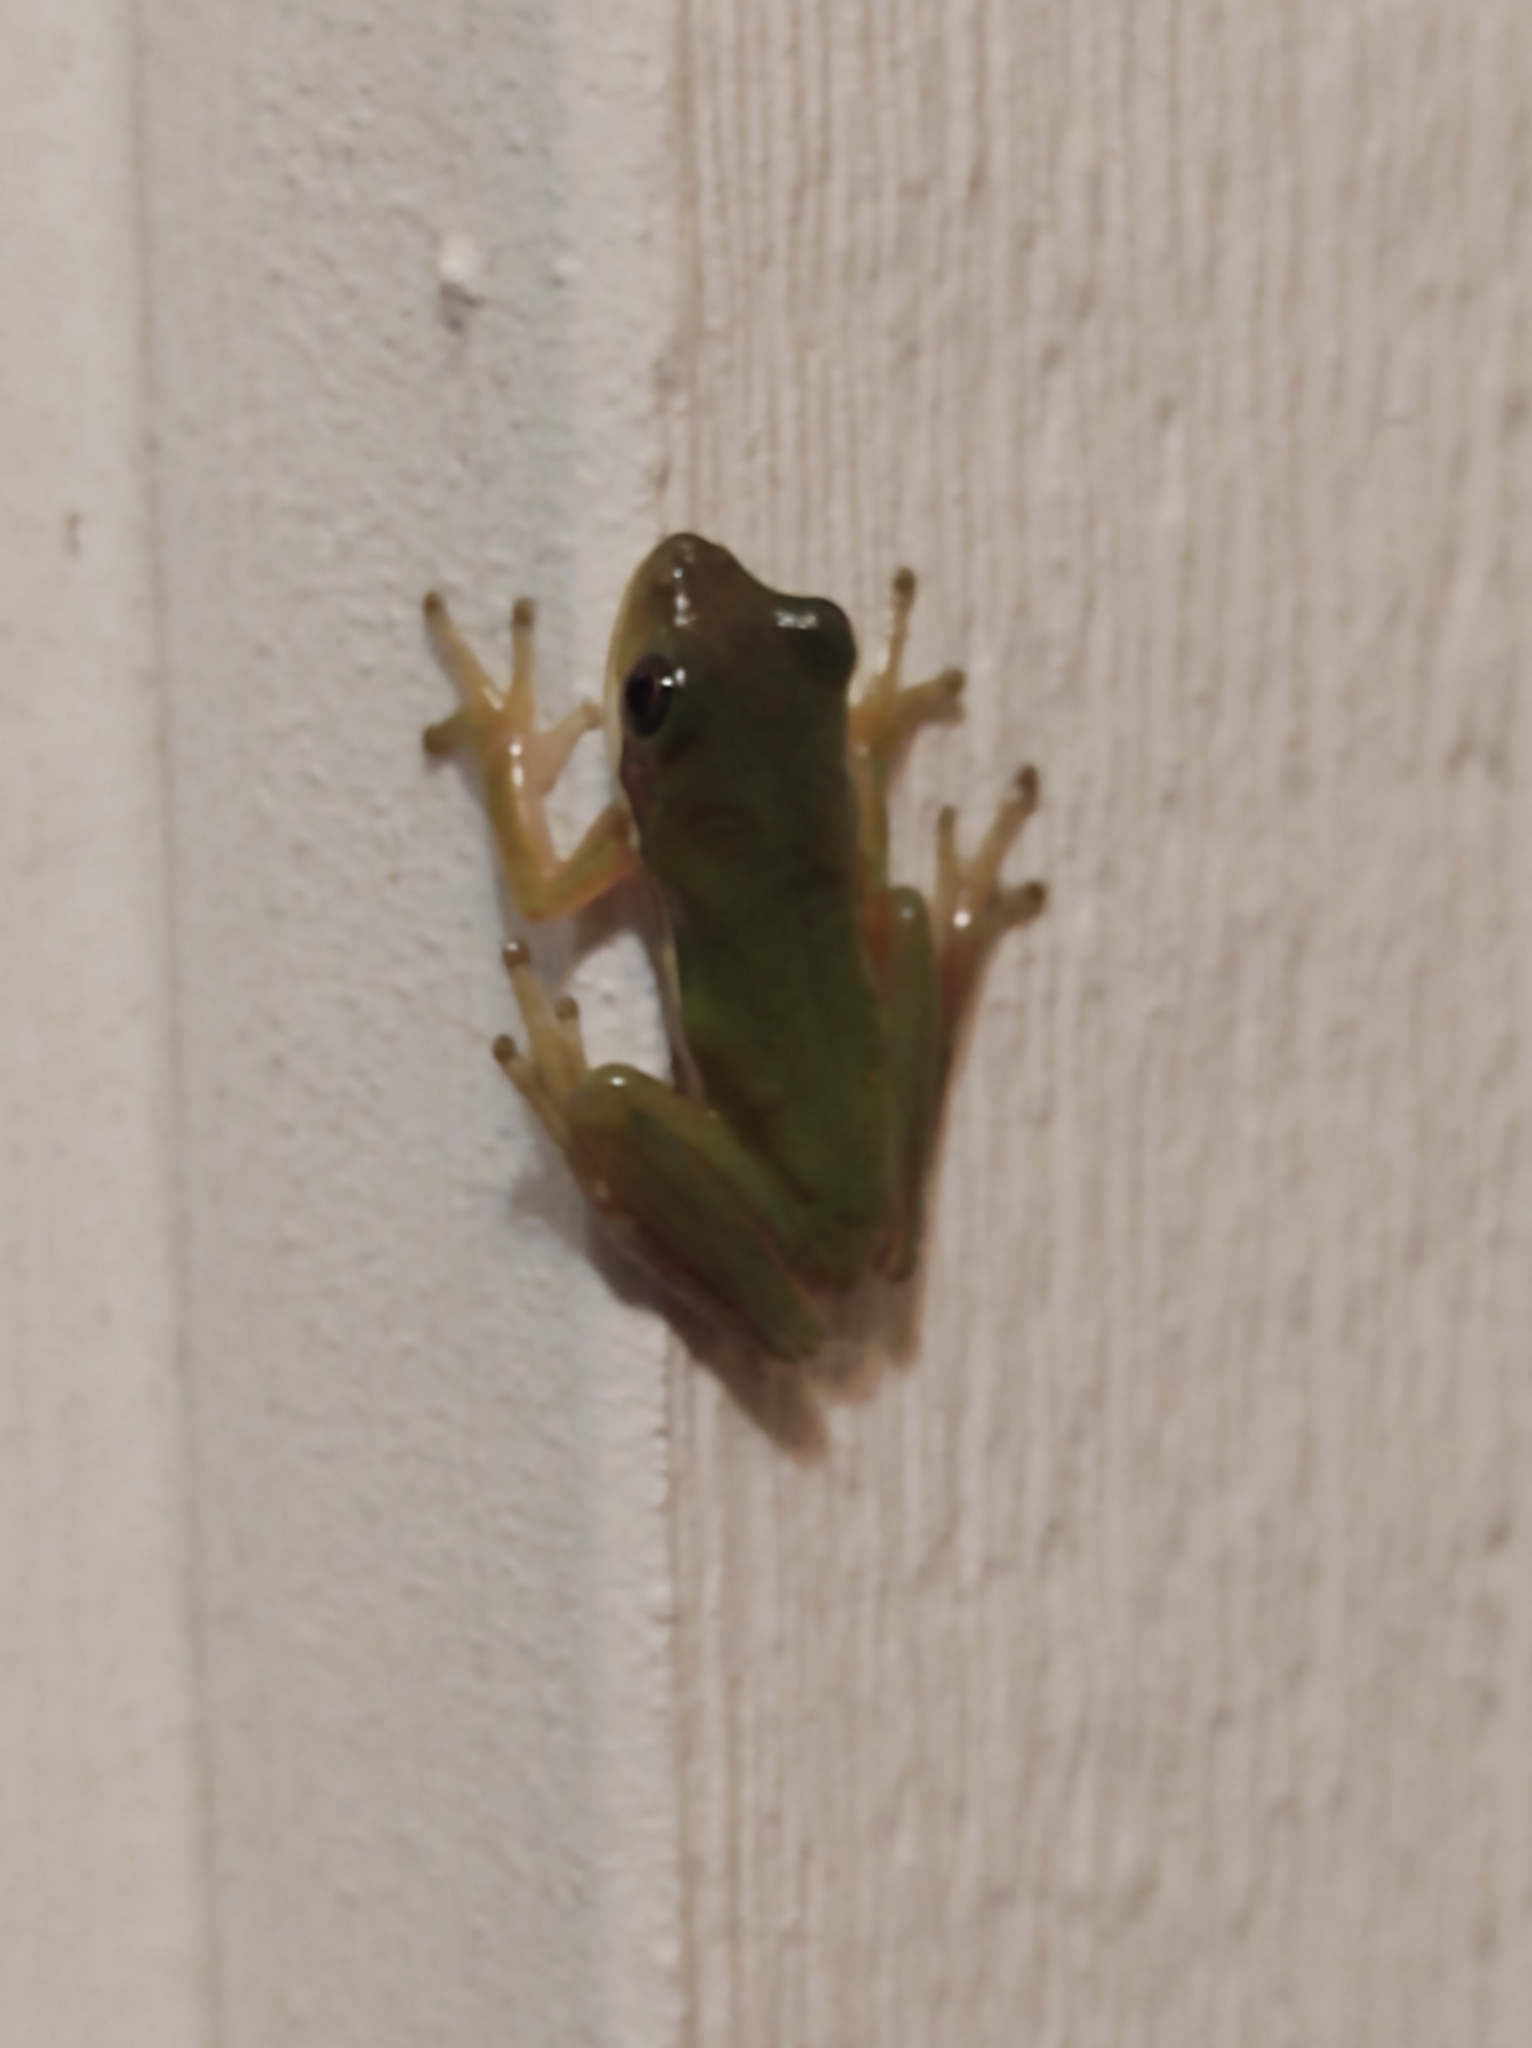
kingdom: Animalia
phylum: Chordata
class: Amphibia
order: Anura
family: Hylidae
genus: Dryophytes
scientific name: Dryophytes cinereus
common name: Green treefrog
